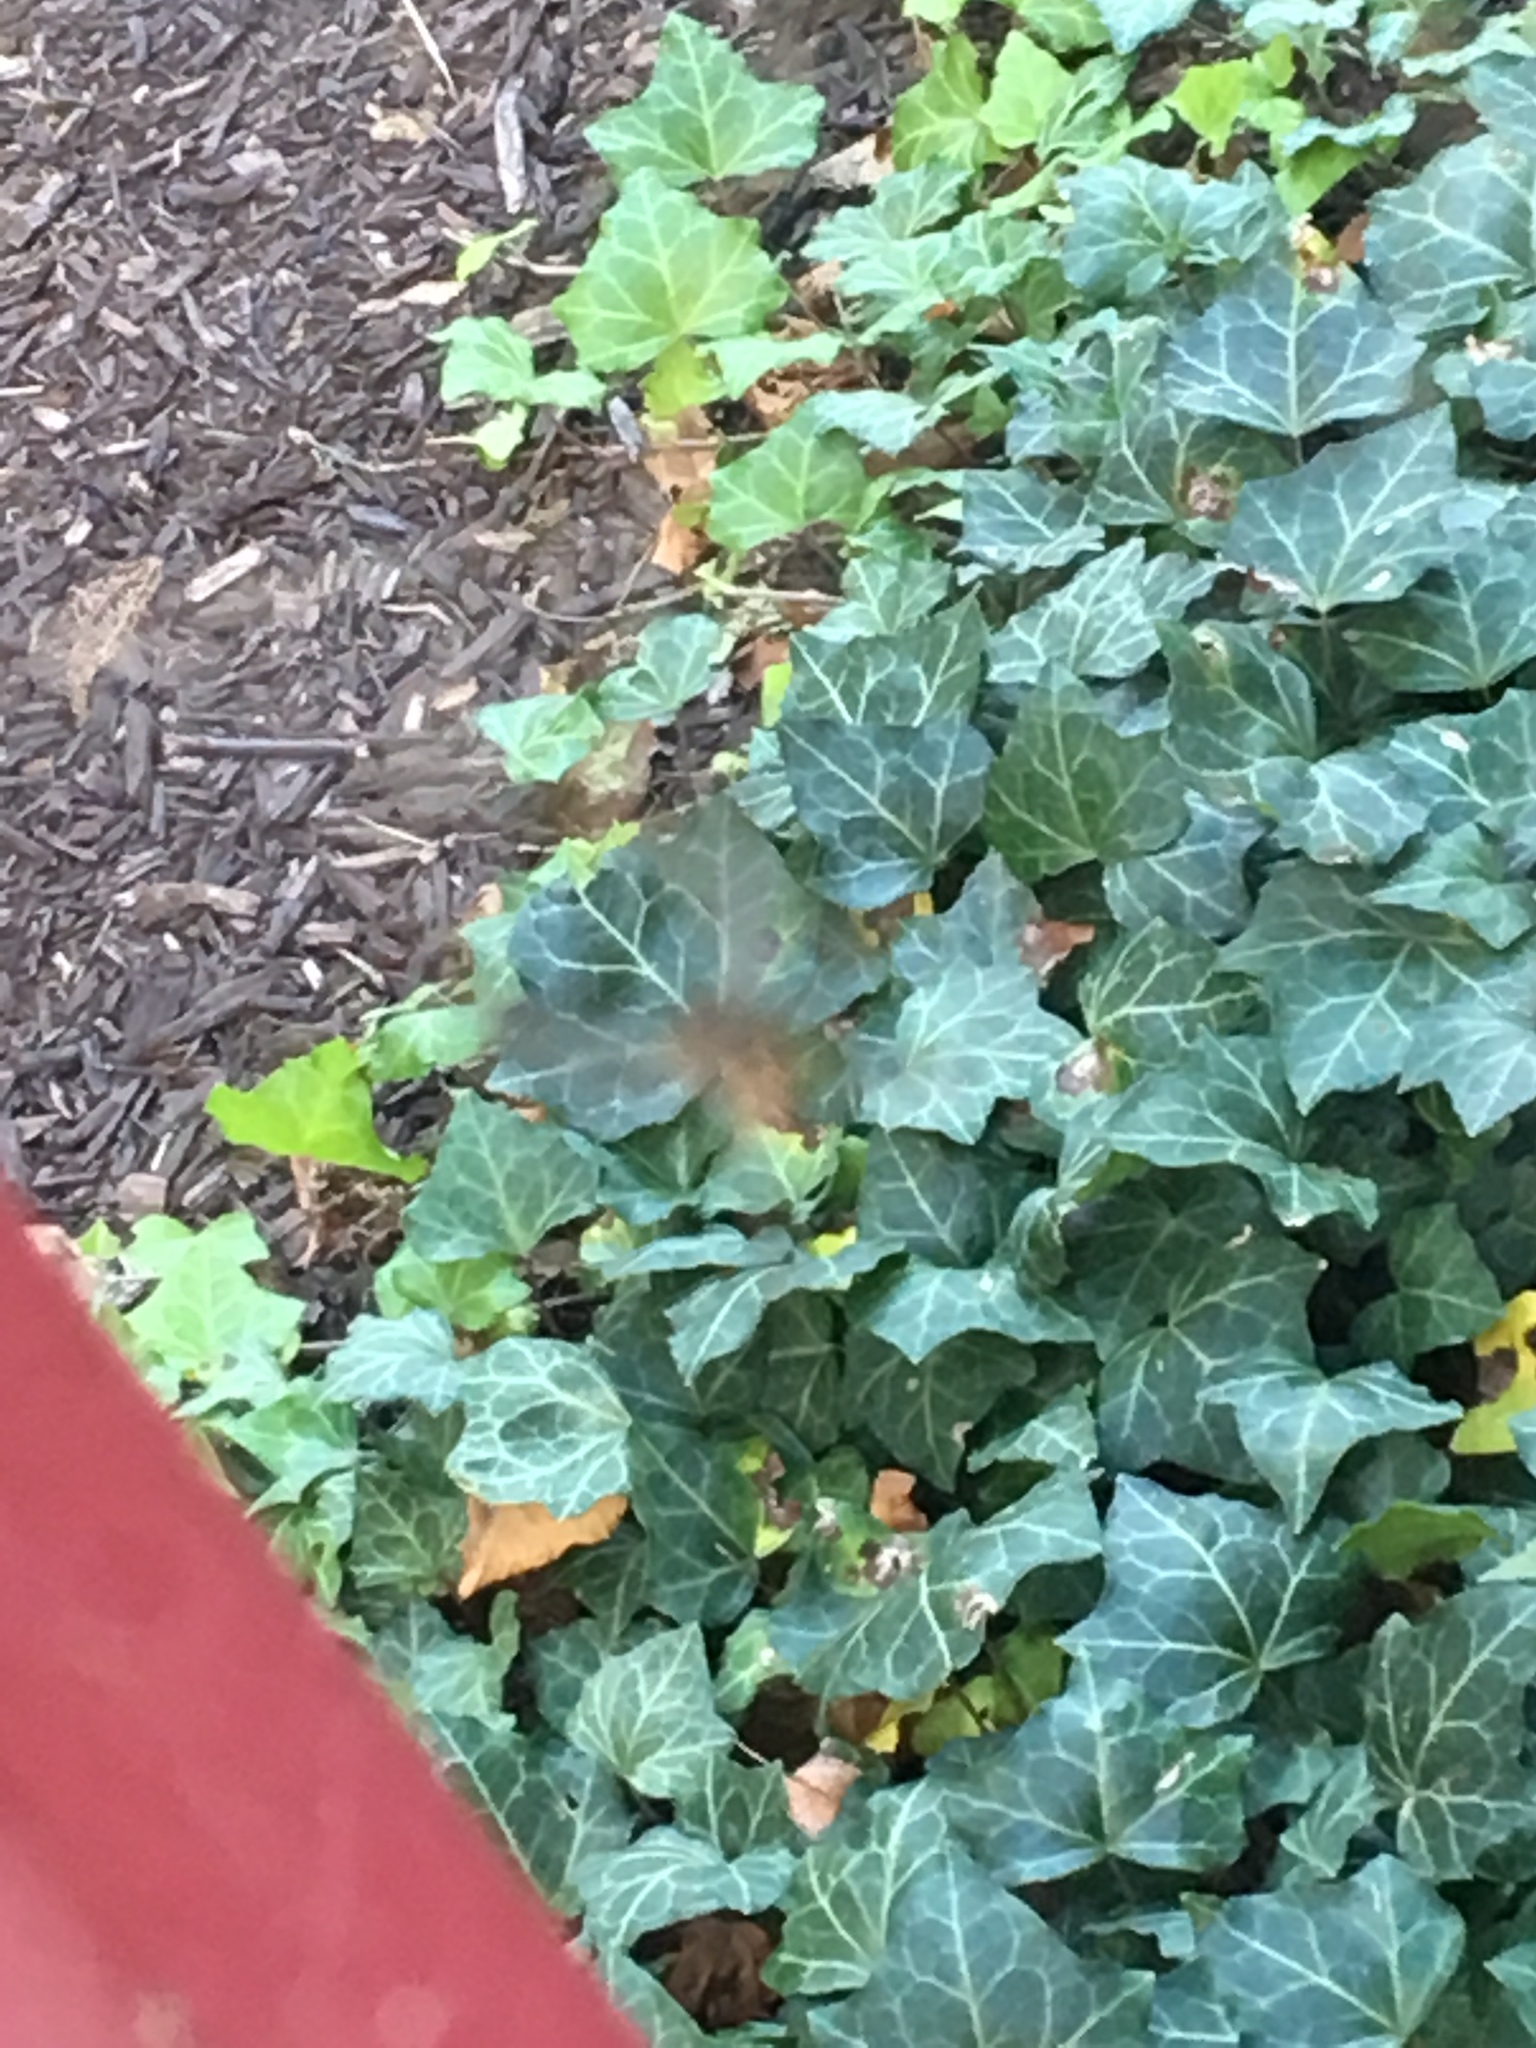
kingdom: Animalia
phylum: Arthropoda
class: Arachnida
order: Araneae
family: Araneidae
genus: Mecynogea
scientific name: Mecynogea lemniscata
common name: Orb weavers
